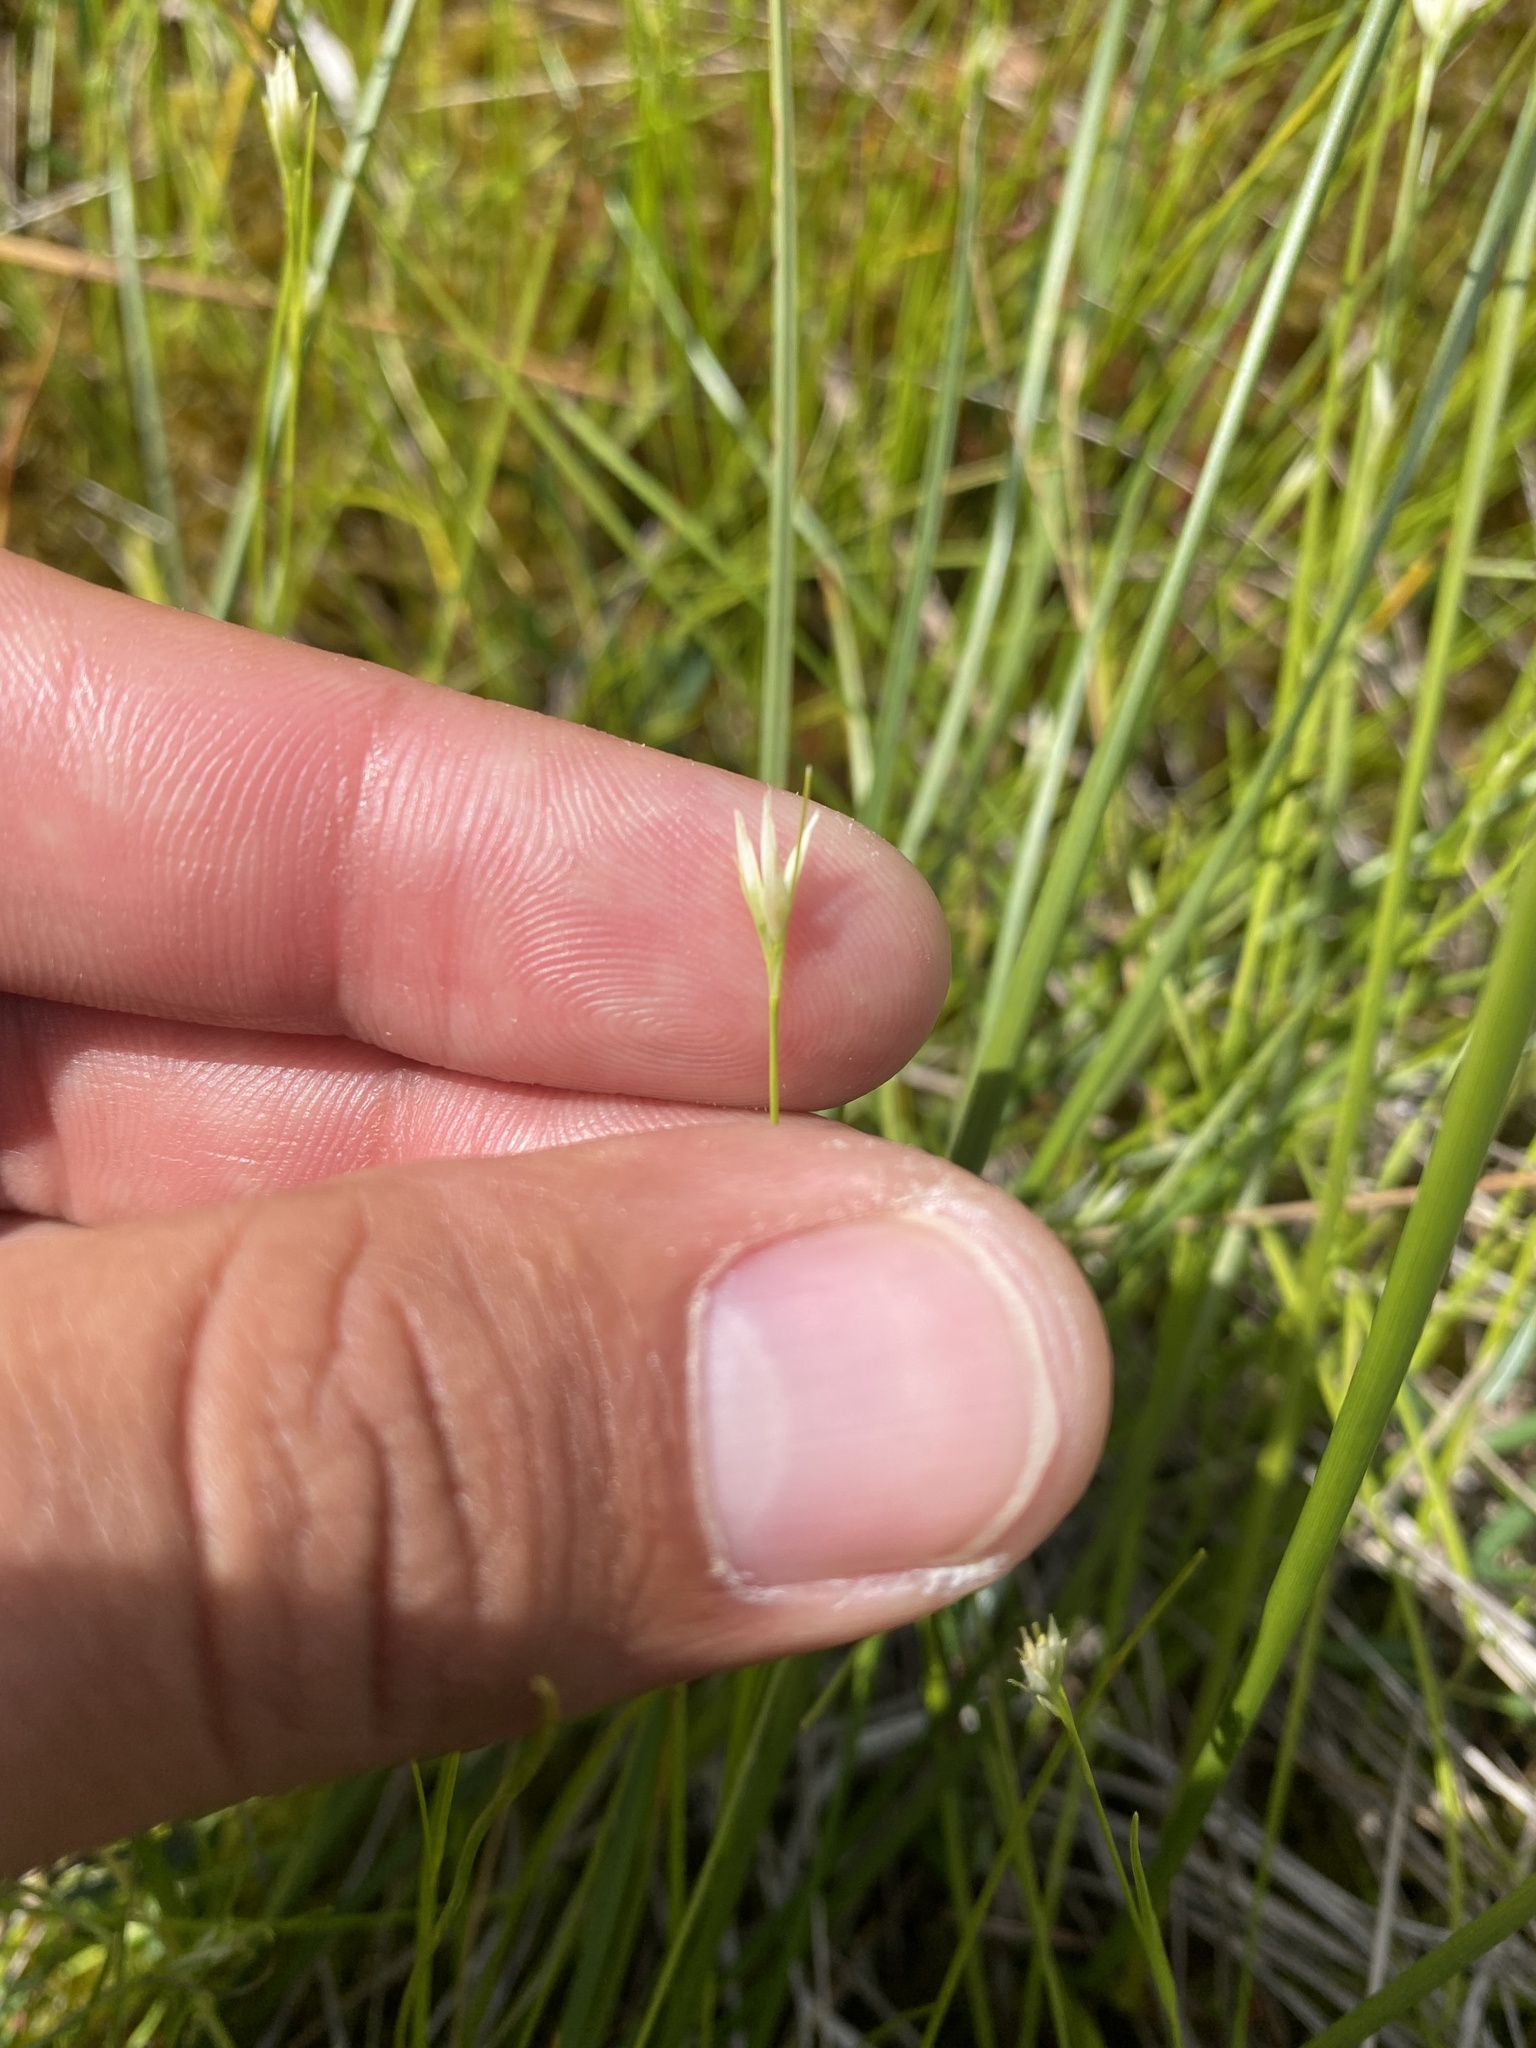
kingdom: Plantae
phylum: Tracheophyta
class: Liliopsida
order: Poales
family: Cyperaceae
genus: Rhynchospora
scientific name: Rhynchospora alba
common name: White beak-sedge
